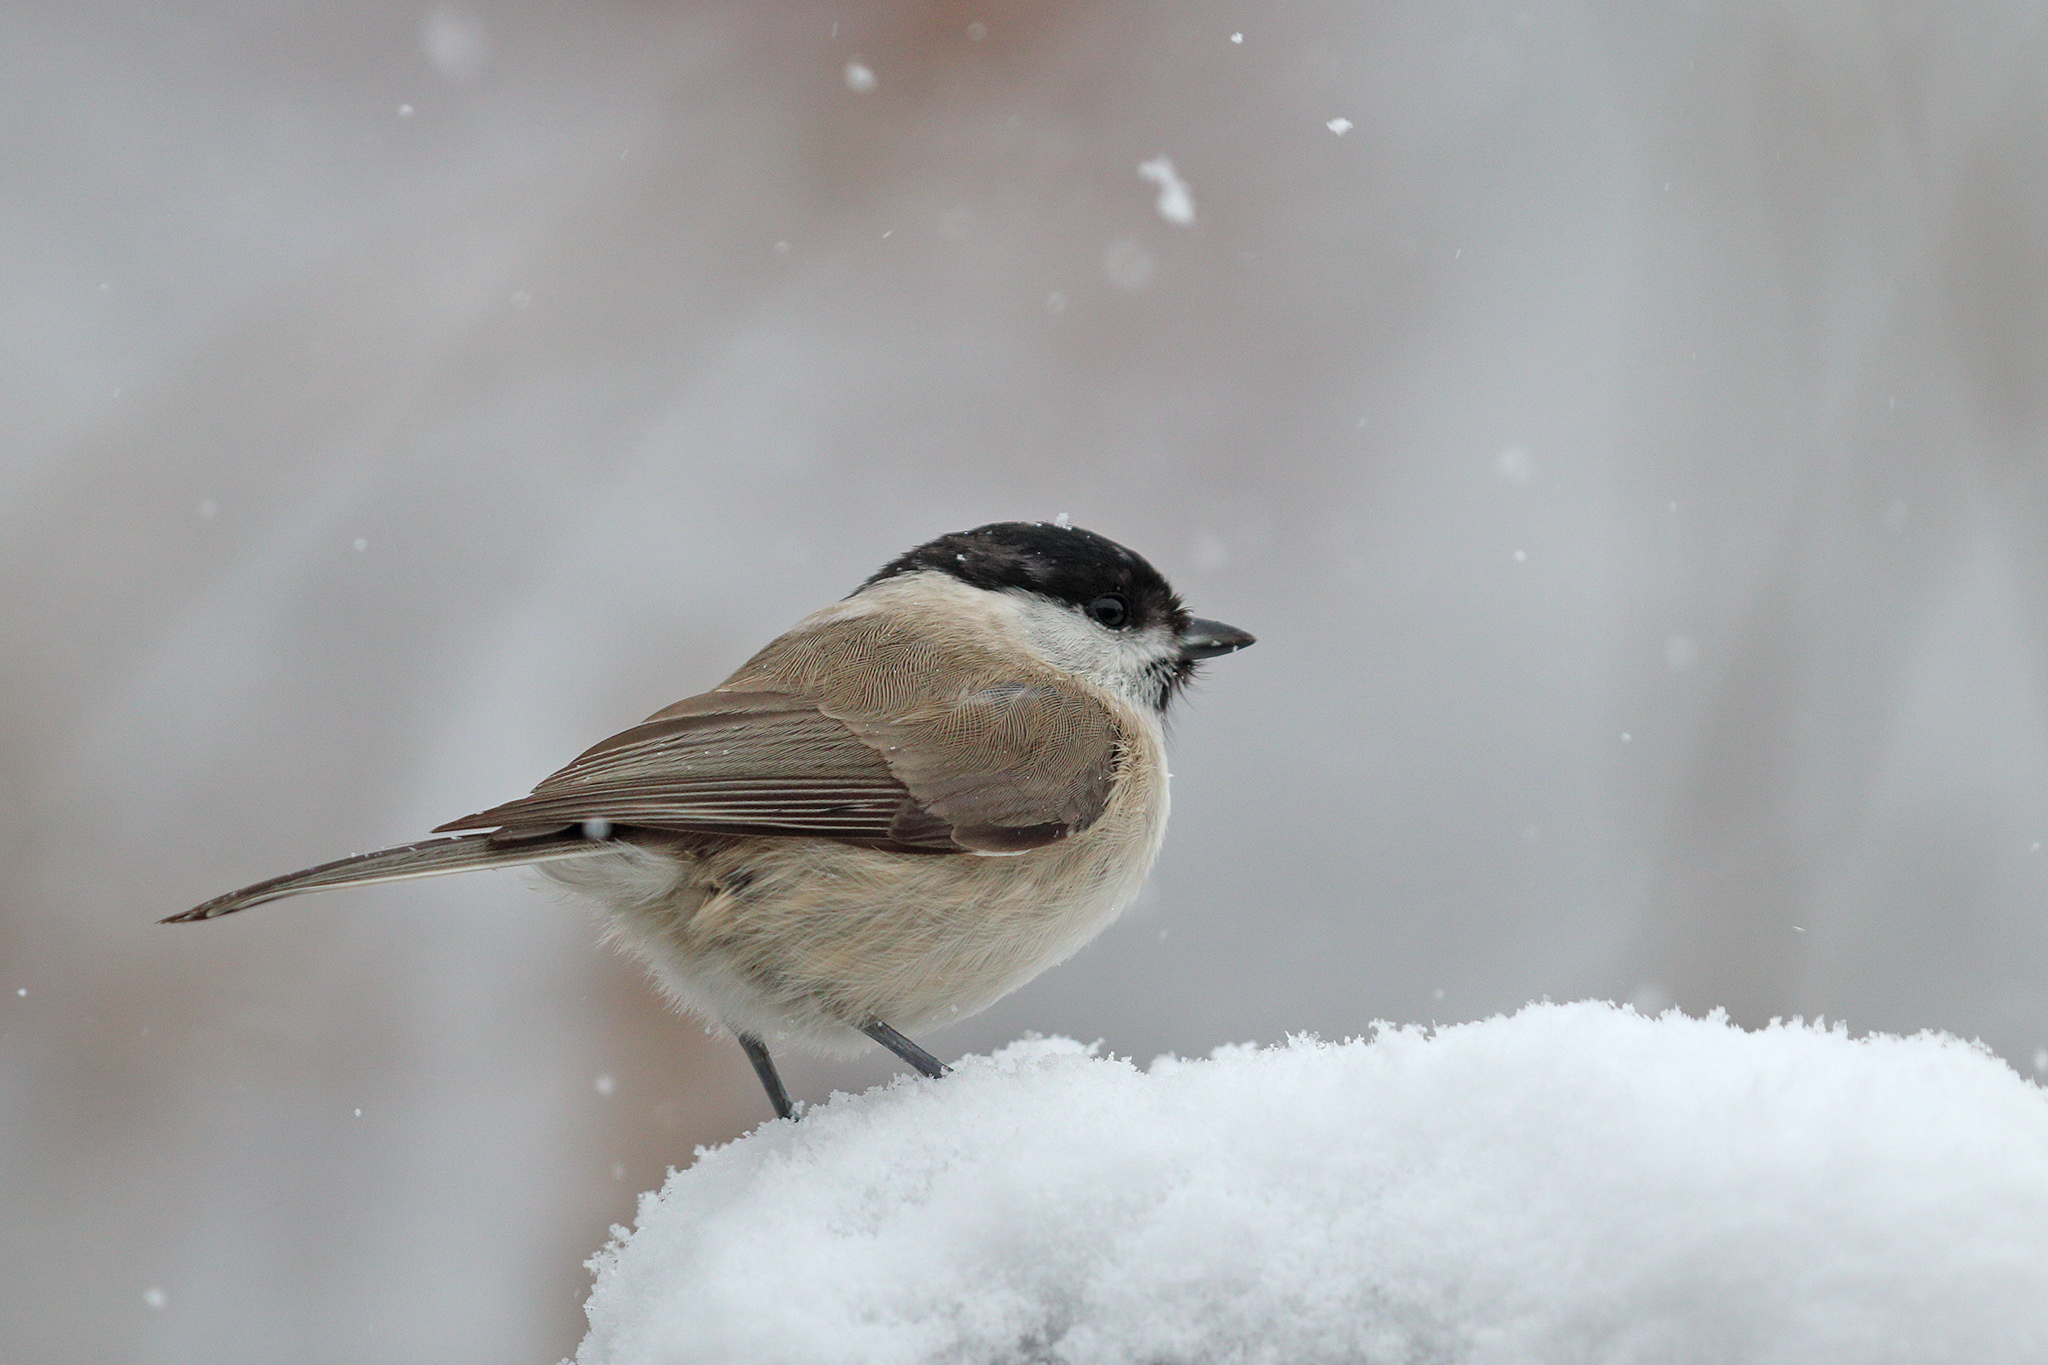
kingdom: Animalia
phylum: Chordata
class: Aves
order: Passeriformes
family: Paridae
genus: Poecile
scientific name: Poecile palustris
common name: Marsh tit
